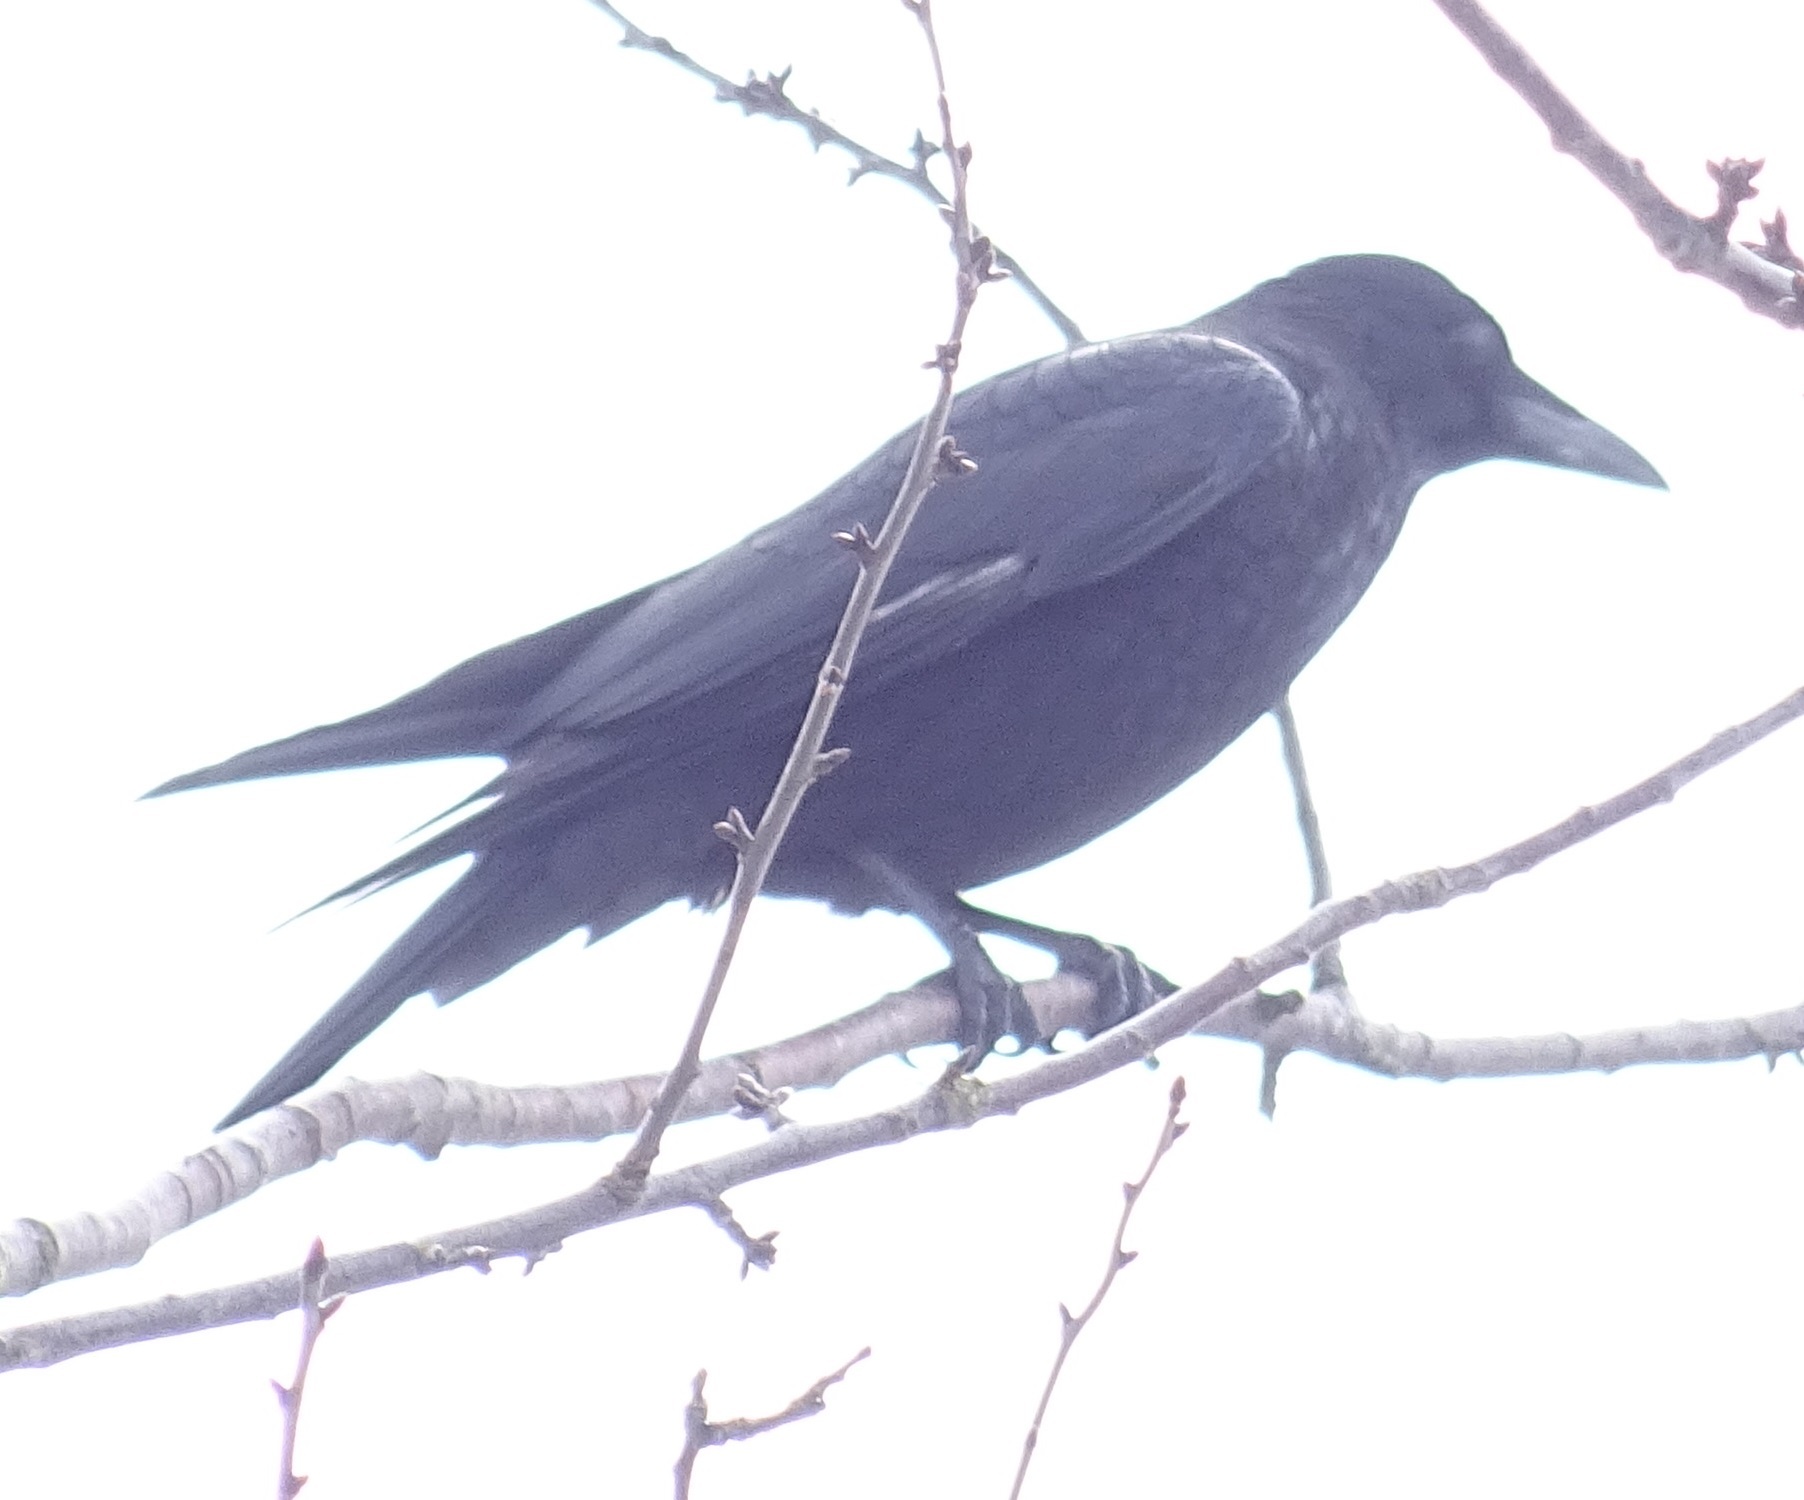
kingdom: Animalia
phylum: Chordata
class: Aves
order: Passeriformes
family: Corvidae
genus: Corvus
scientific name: Corvus corone
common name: Carrion crow
